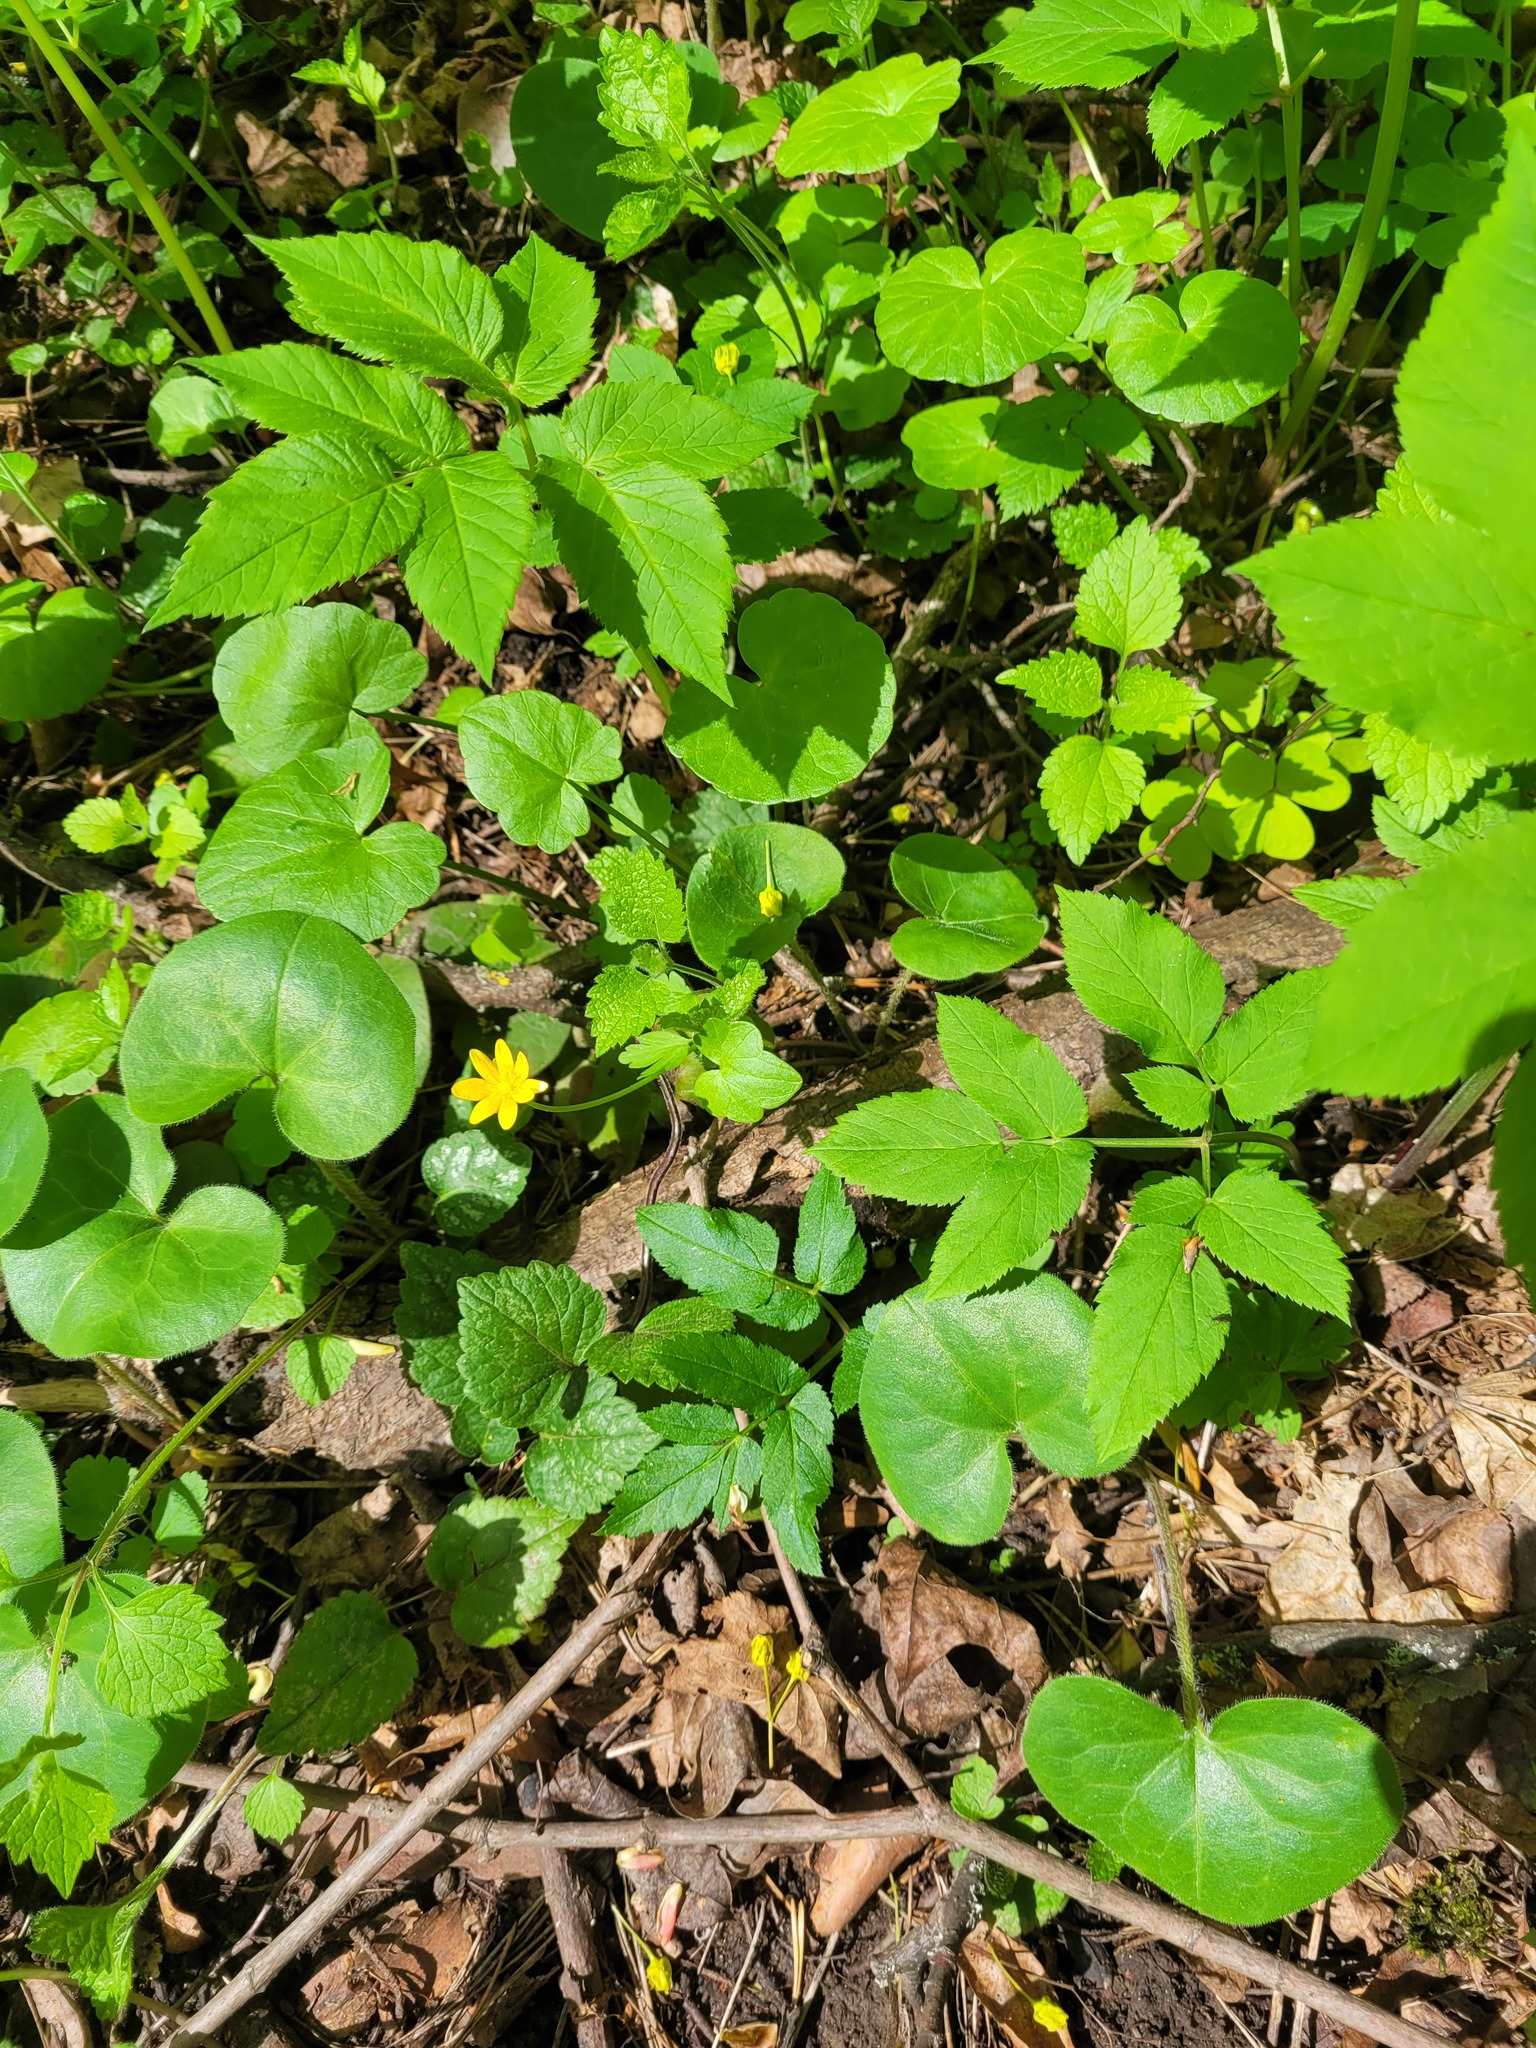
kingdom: Plantae
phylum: Tracheophyta
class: Magnoliopsida
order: Ranunculales
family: Ranunculaceae
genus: Ficaria
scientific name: Ficaria verna
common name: Lesser celandine
